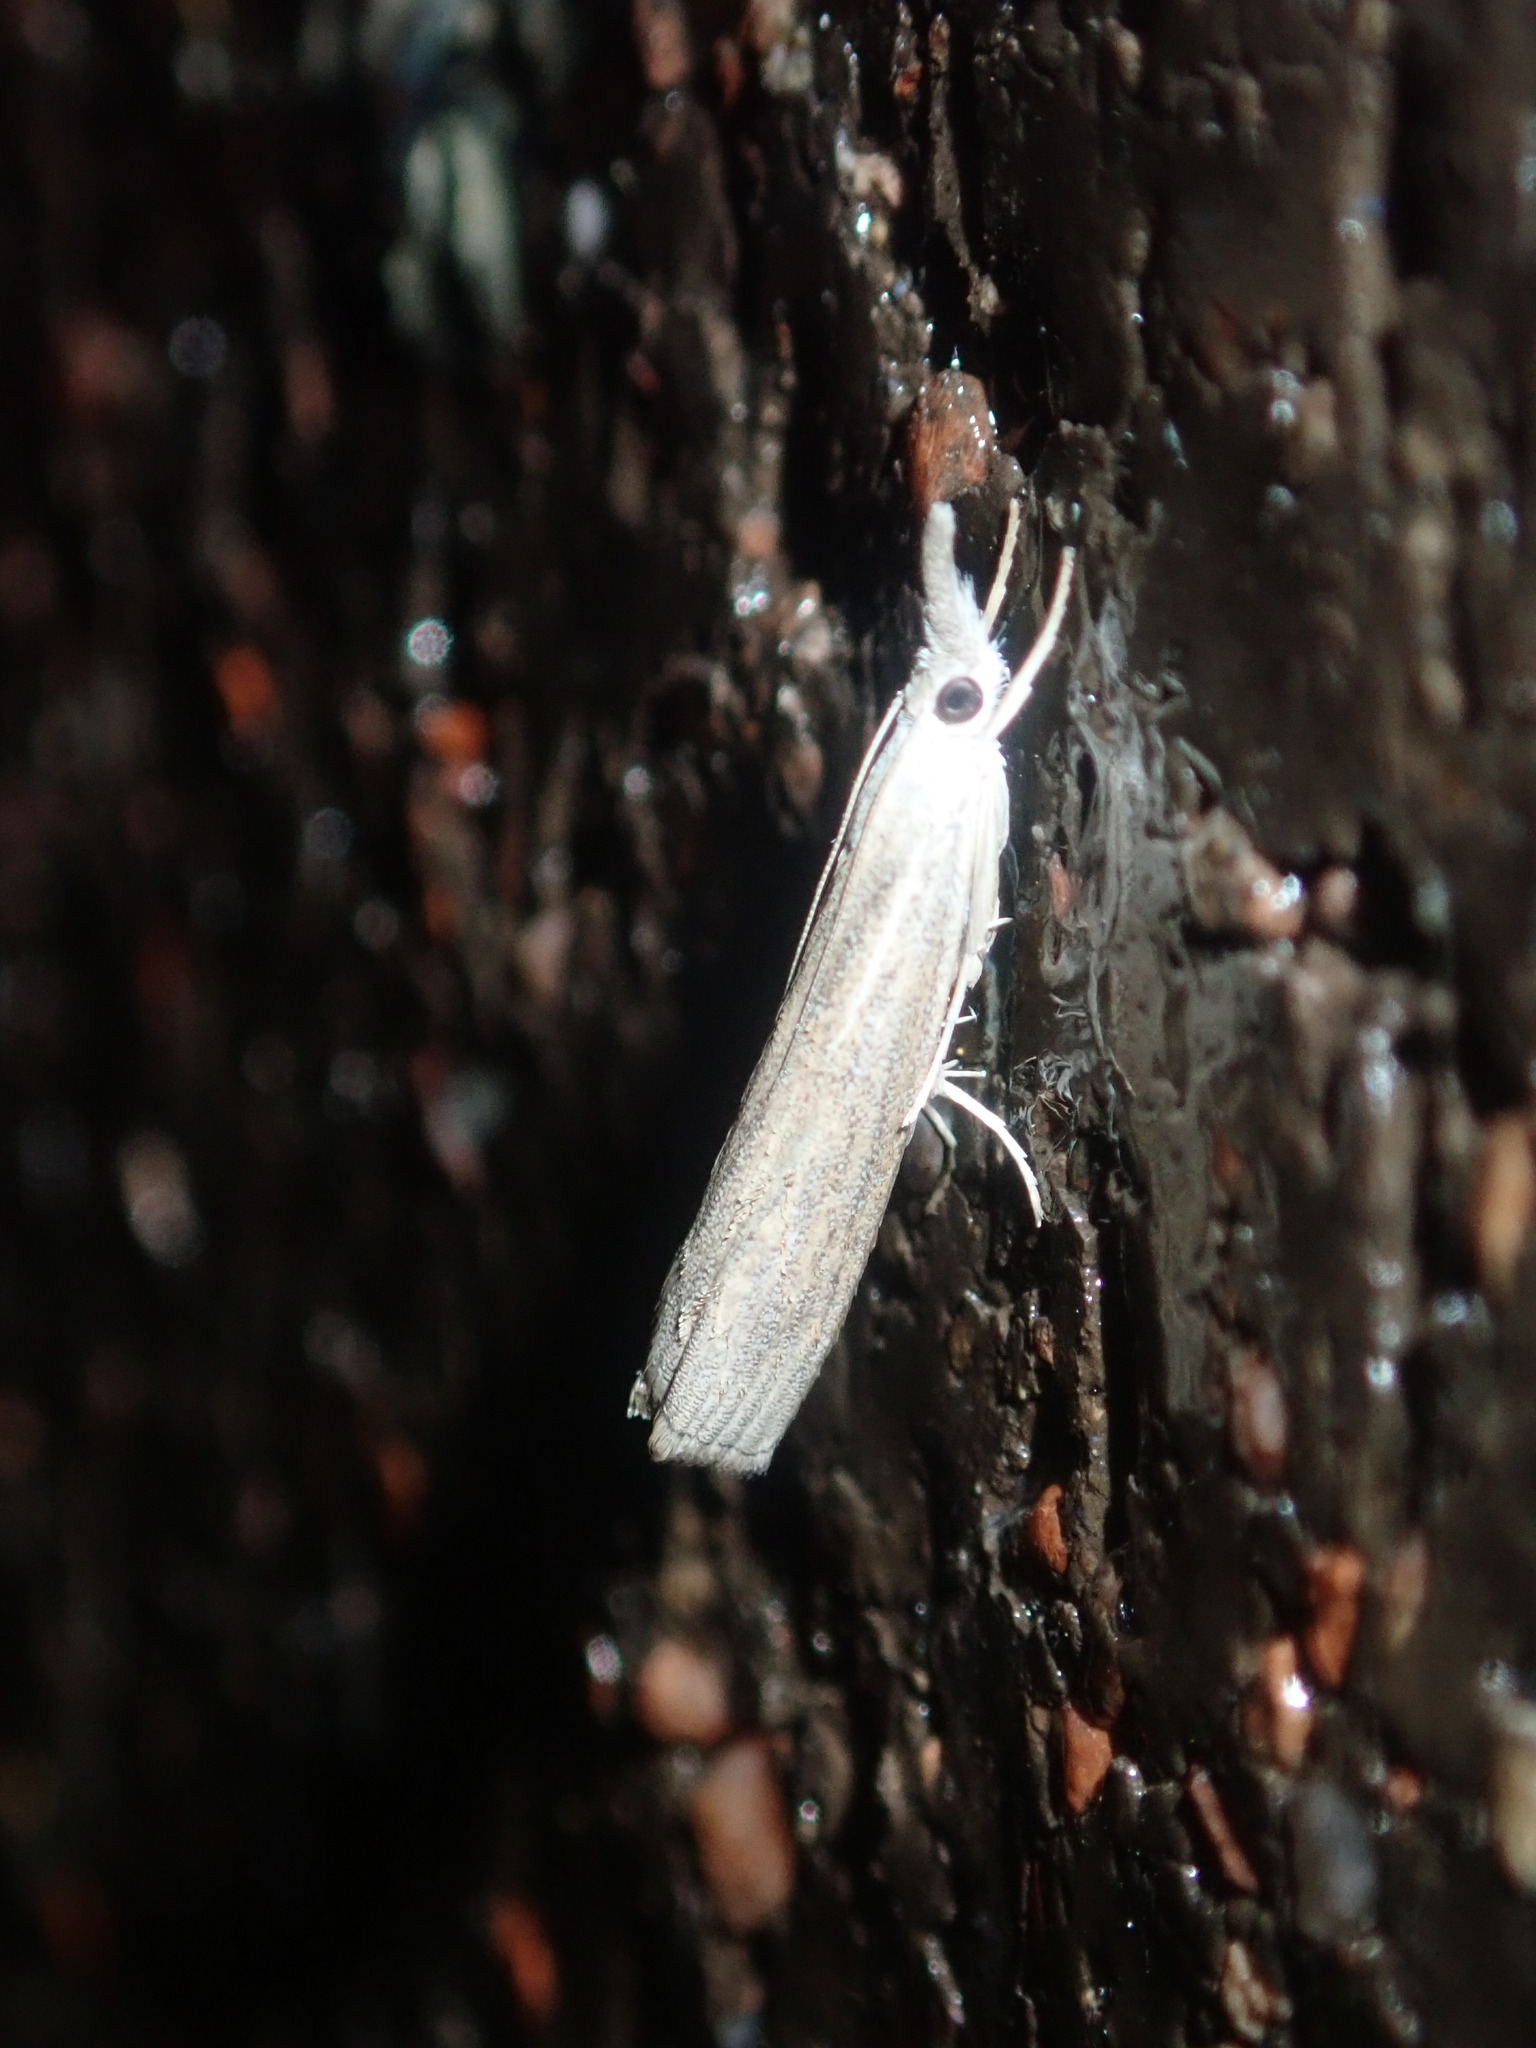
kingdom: Animalia
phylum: Arthropoda
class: Insecta
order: Lepidoptera
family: Crambidae
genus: Culladia
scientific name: Culladia cuneiferellus
